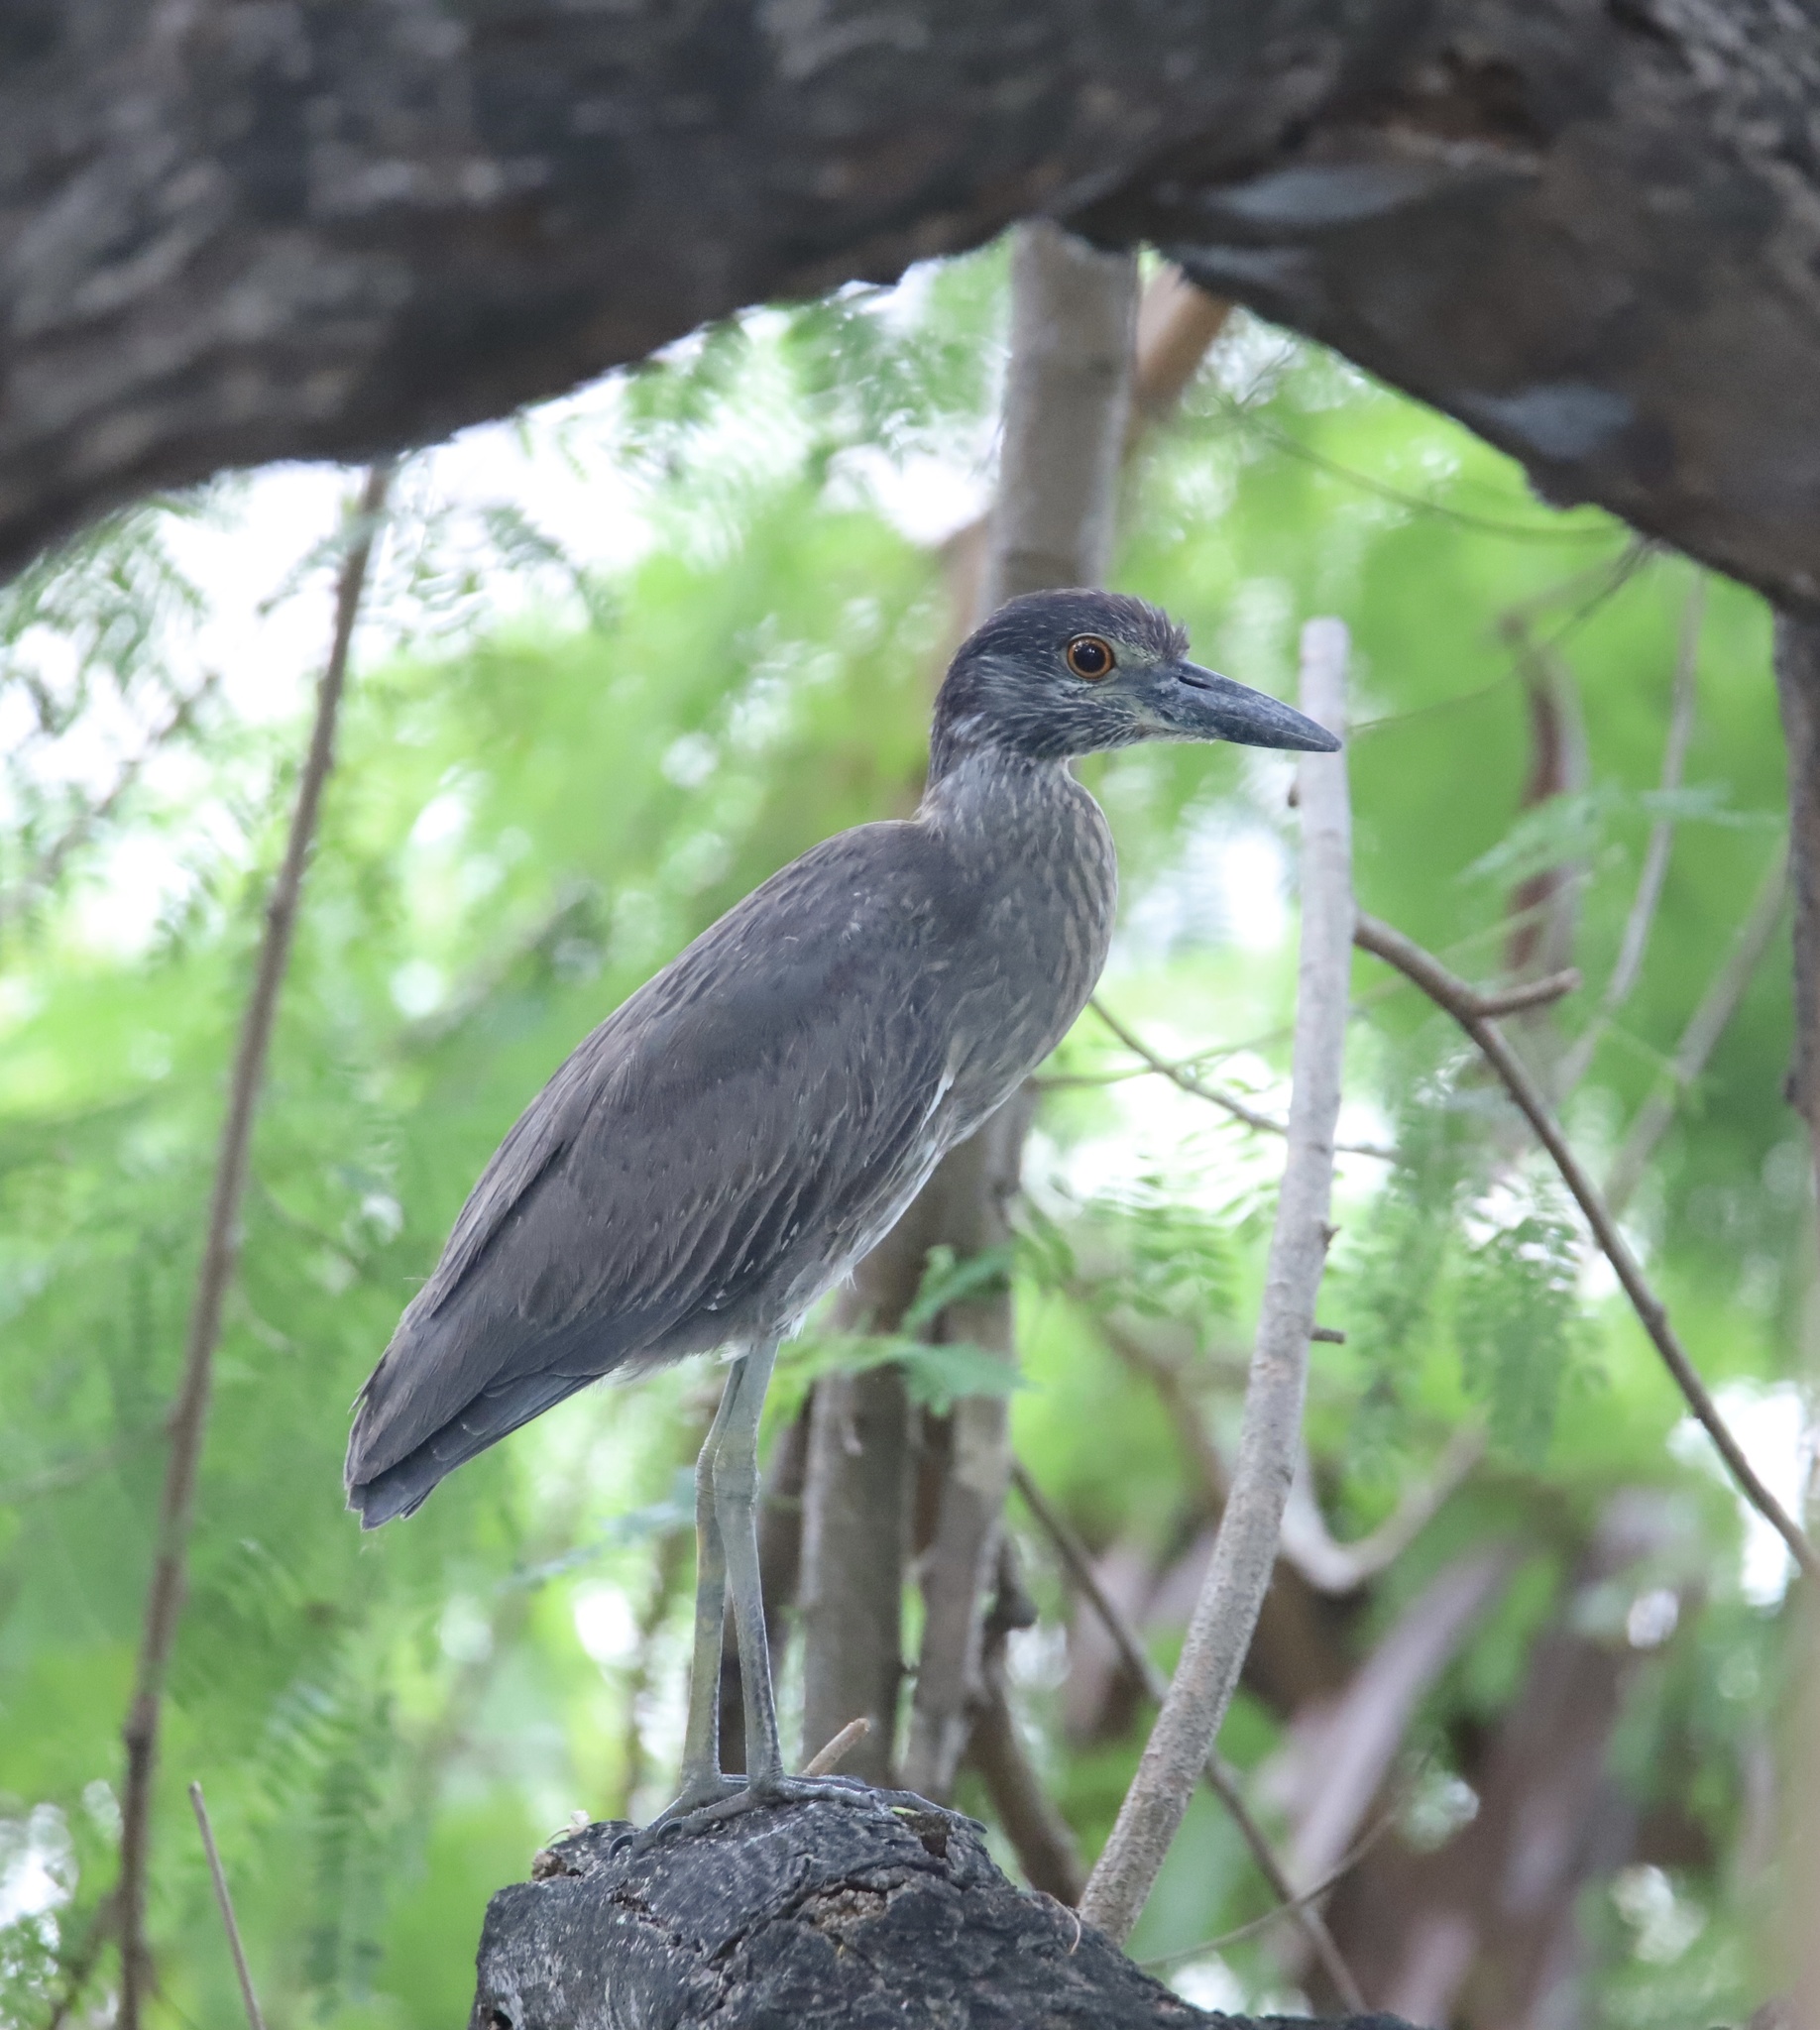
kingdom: Animalia
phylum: Chordata
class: Aves
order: Pelecaniformes
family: Ardeidae
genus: Nyctanassa
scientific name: Nyctanassa violacea
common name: Yellow-crowned night heron
